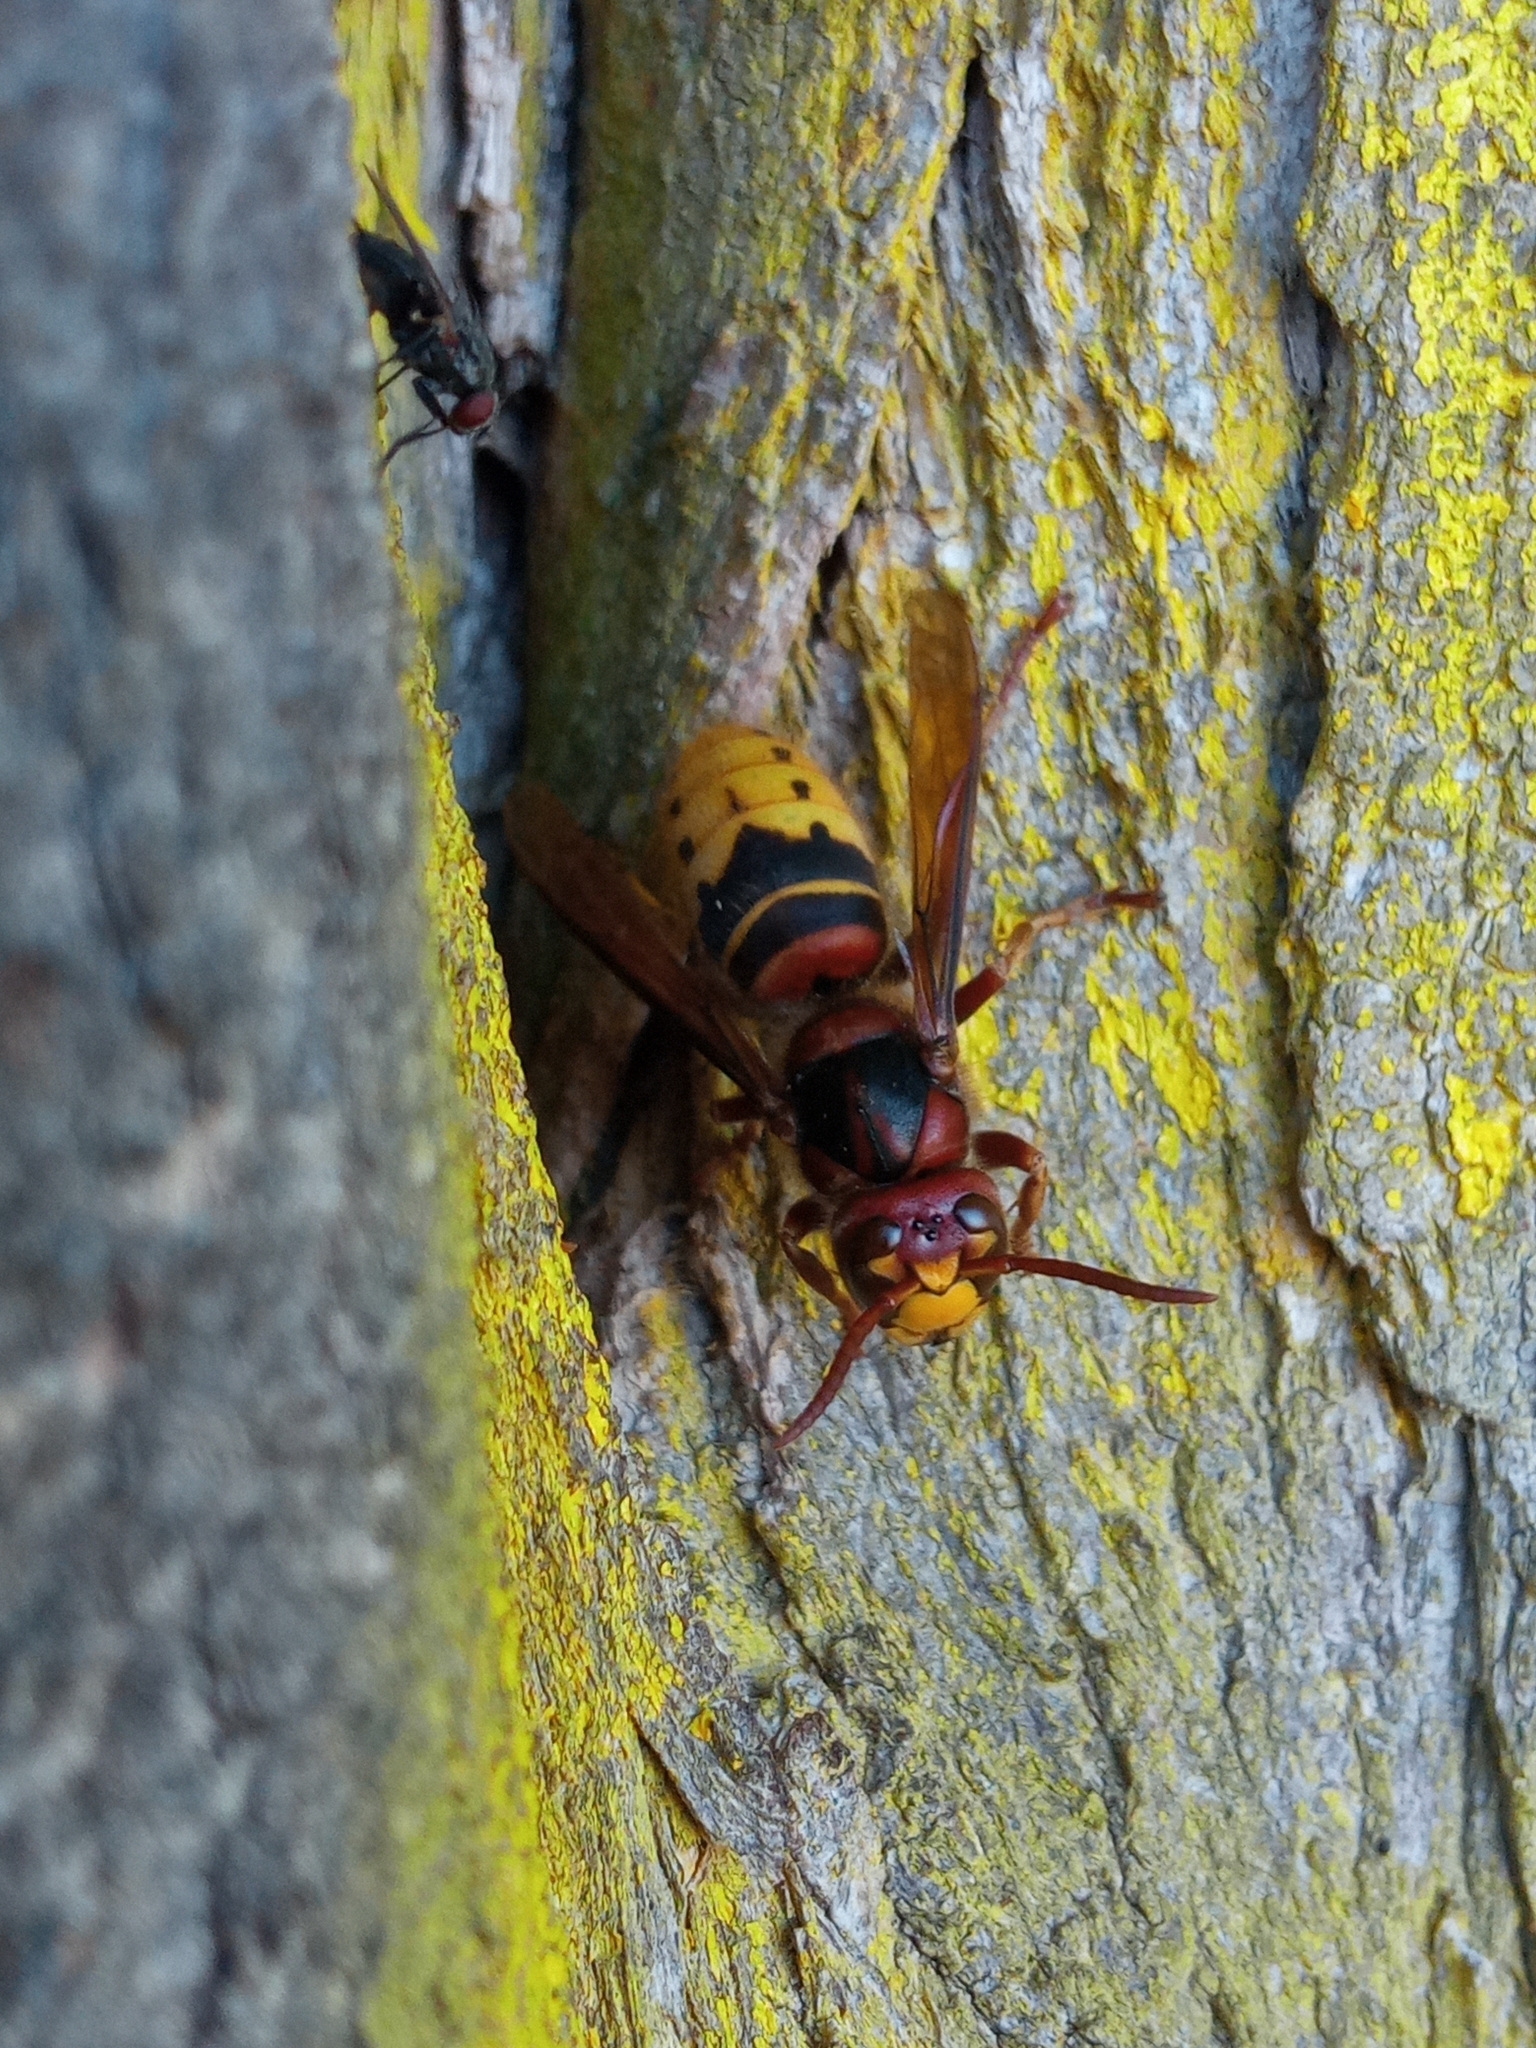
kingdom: Animalia
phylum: Arthropoda
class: Insecta
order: Hymenoptera
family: Vespidae
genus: Vespa
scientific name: Vespa crabro
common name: Hornet
